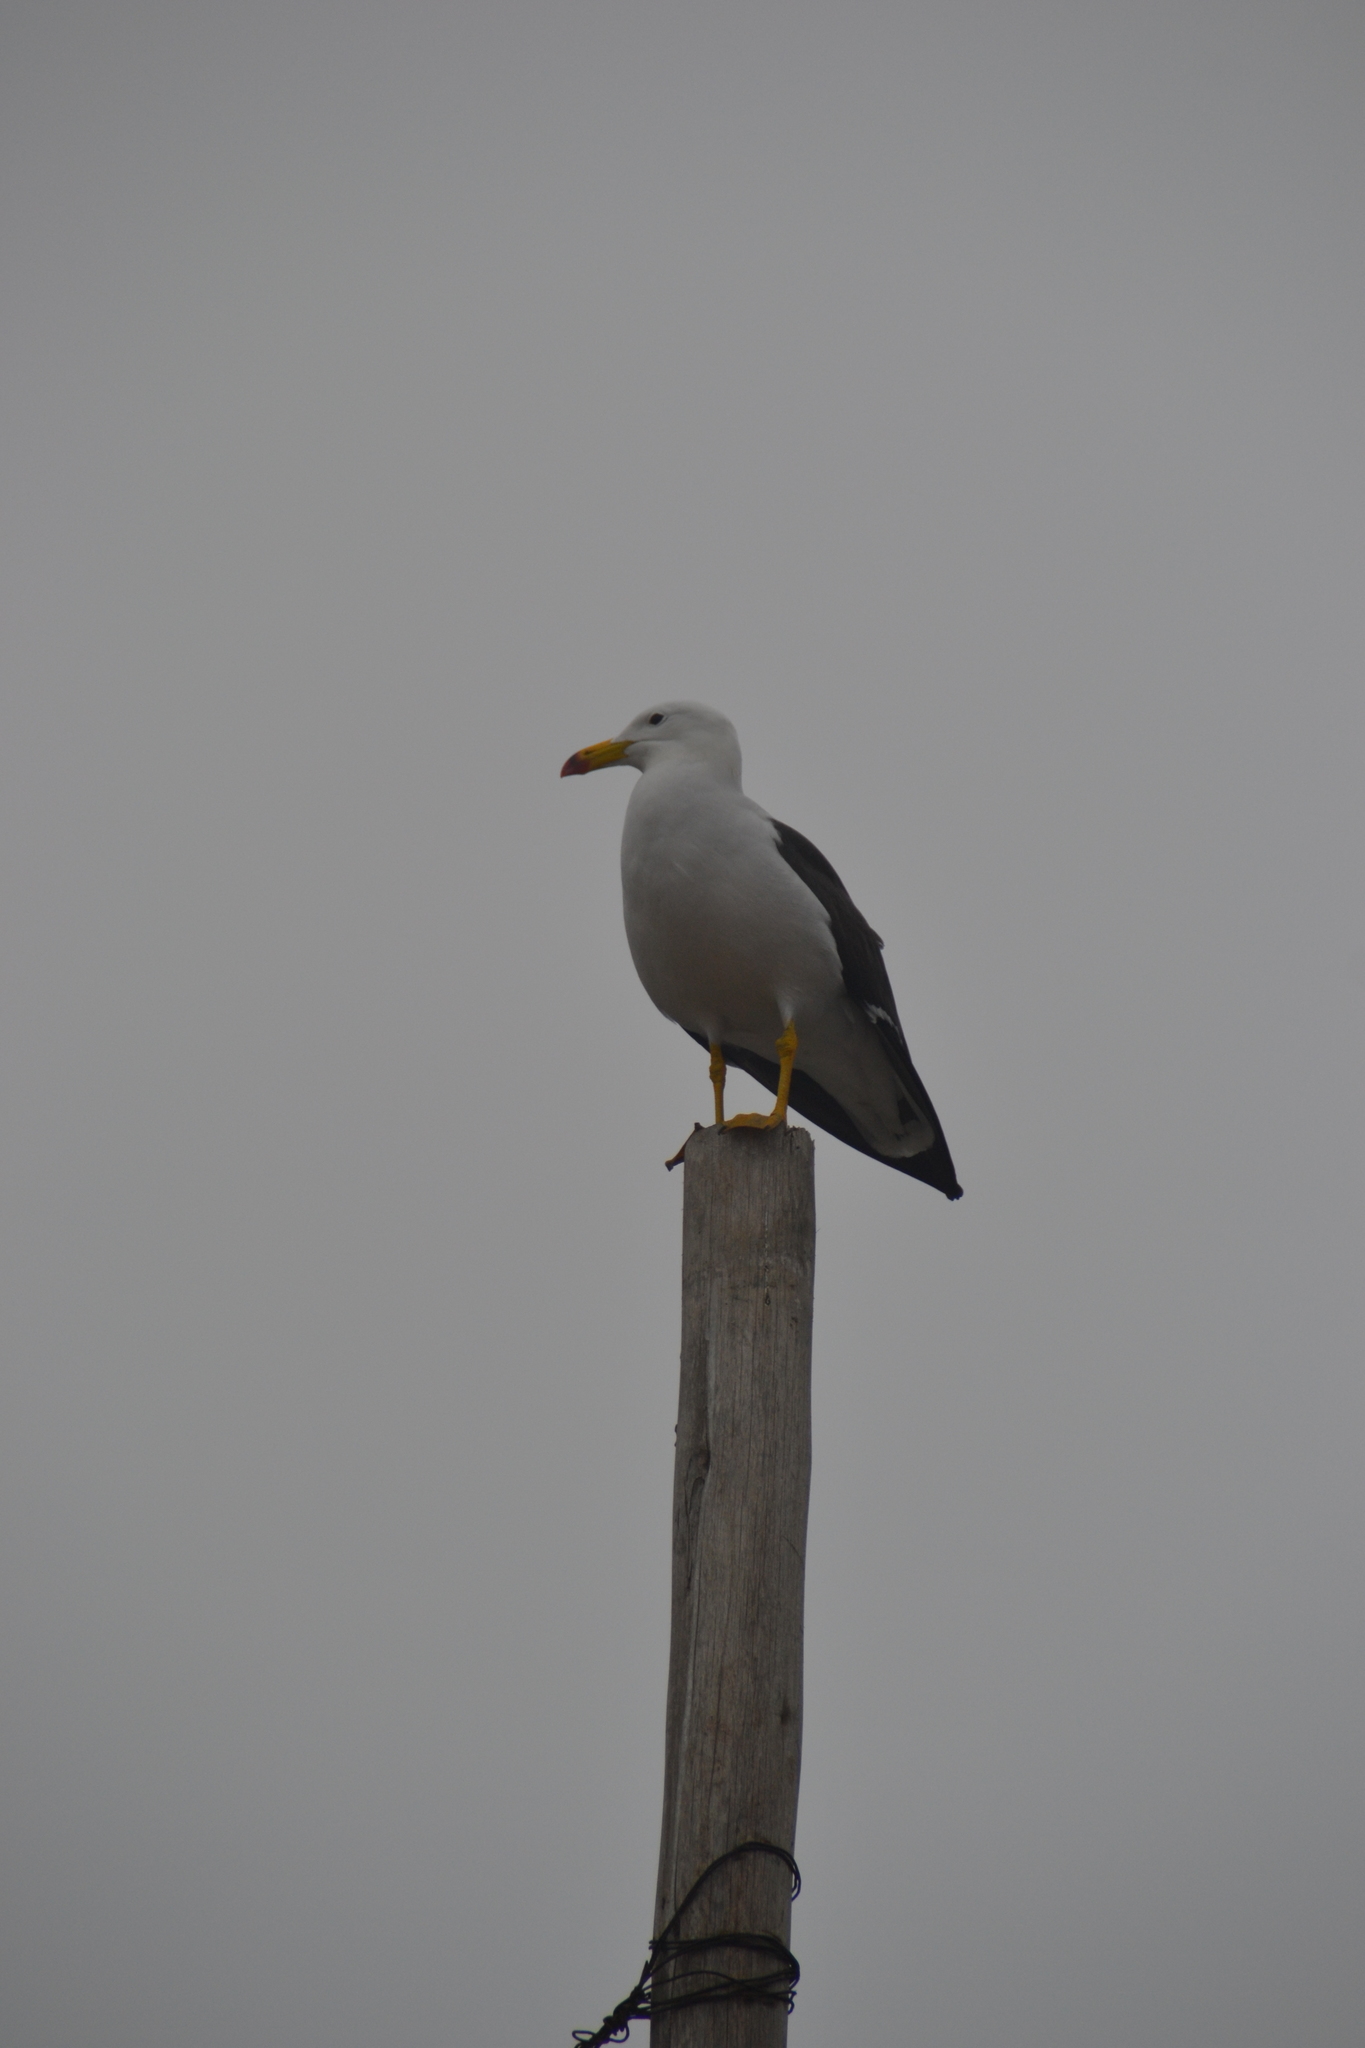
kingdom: Animalia
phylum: Chordata
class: Aves
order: Charadriiformes
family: Laridae
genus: Larus
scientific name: Larus belcheri
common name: Belcher's gull
